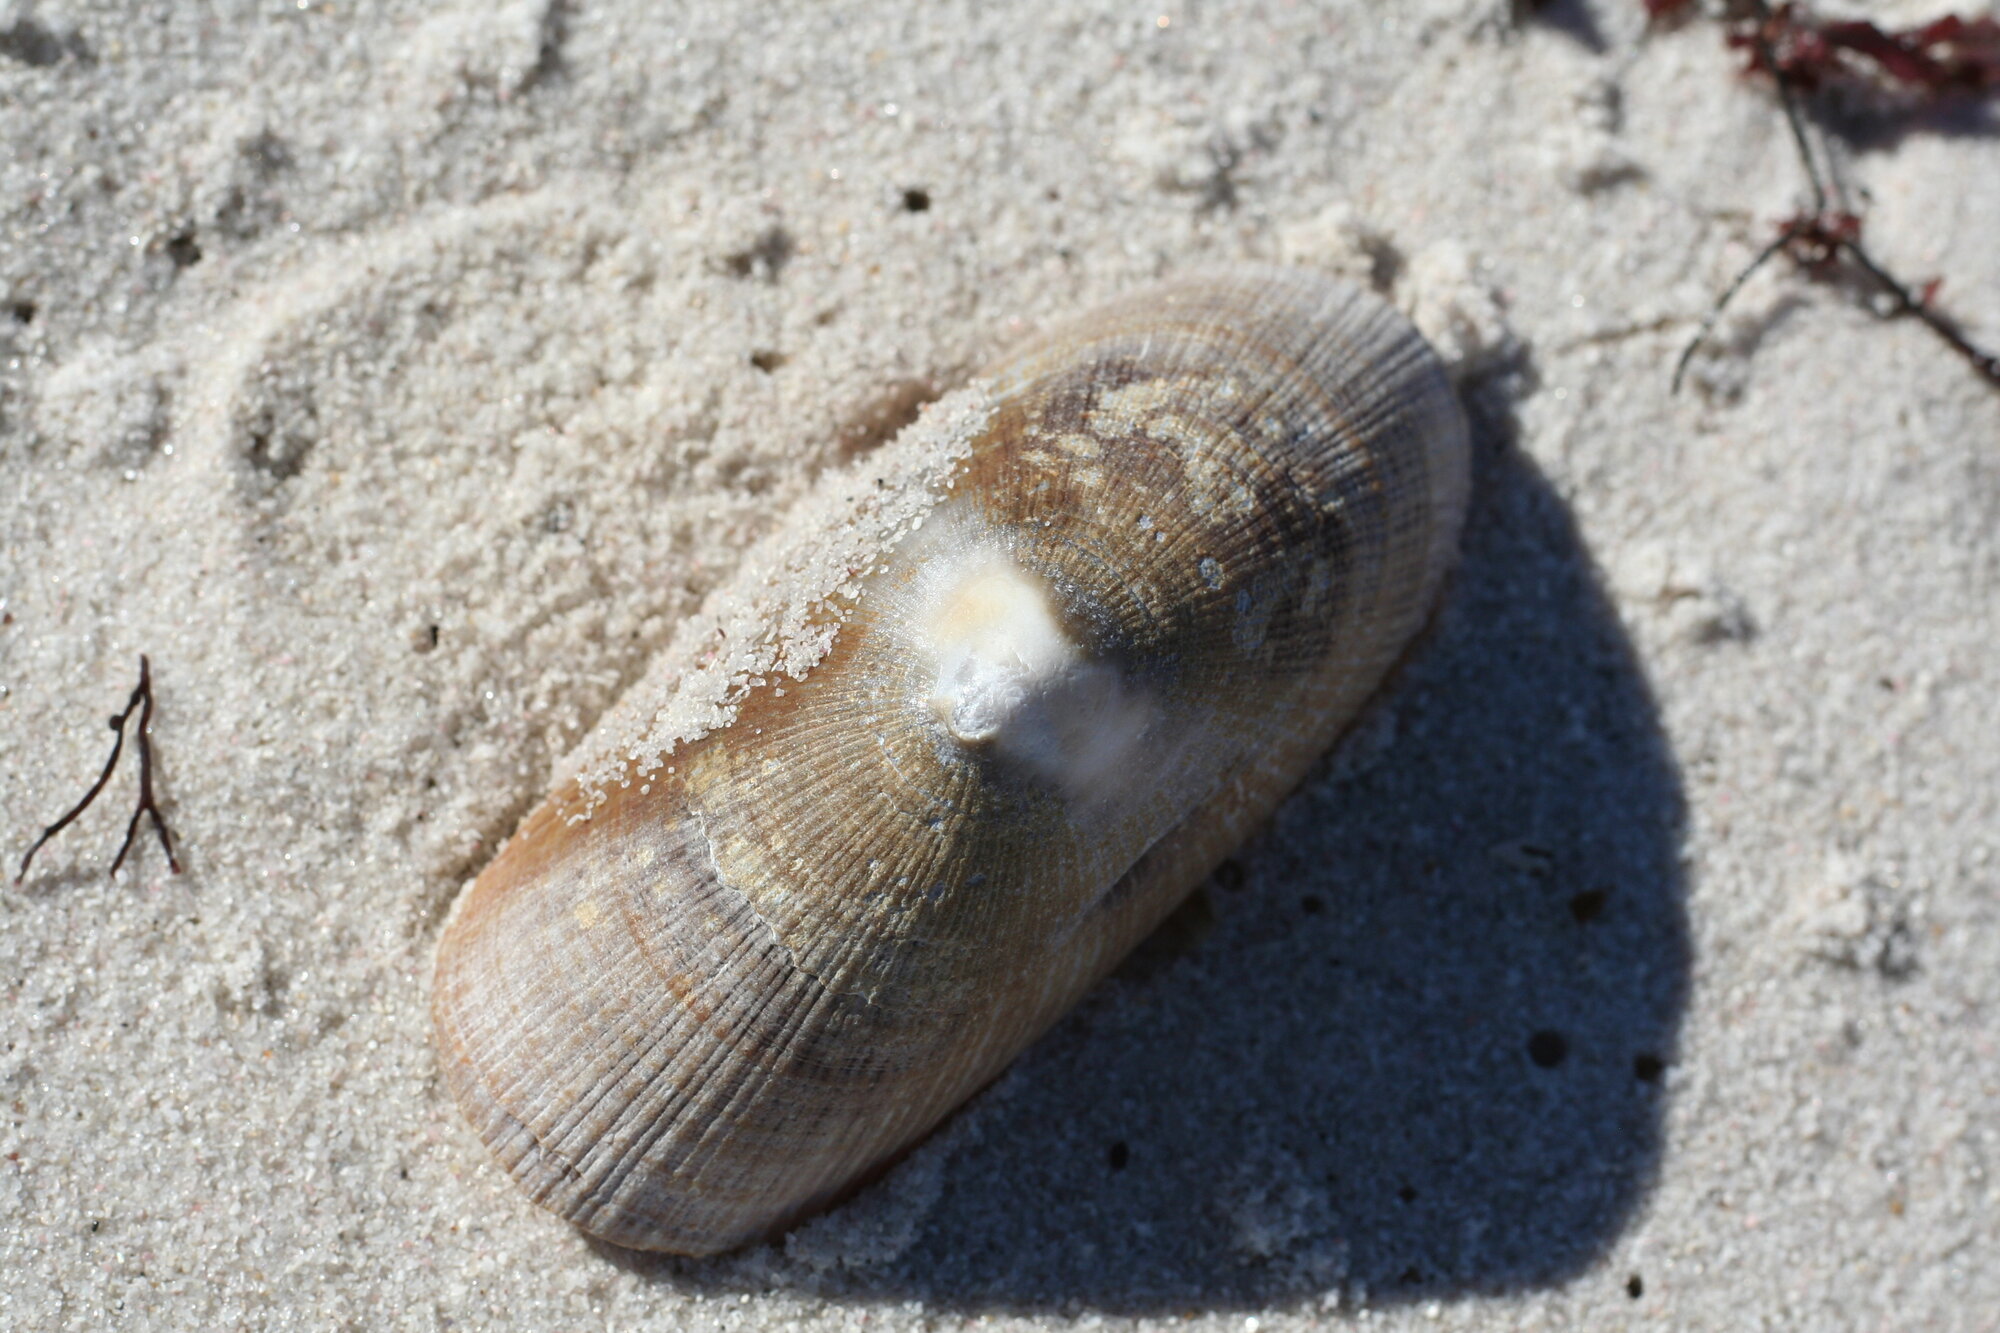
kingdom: Animalia
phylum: Mollusca
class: Gastropoda
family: Patellidae
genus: Cymbula
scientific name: Cymbula compressa
